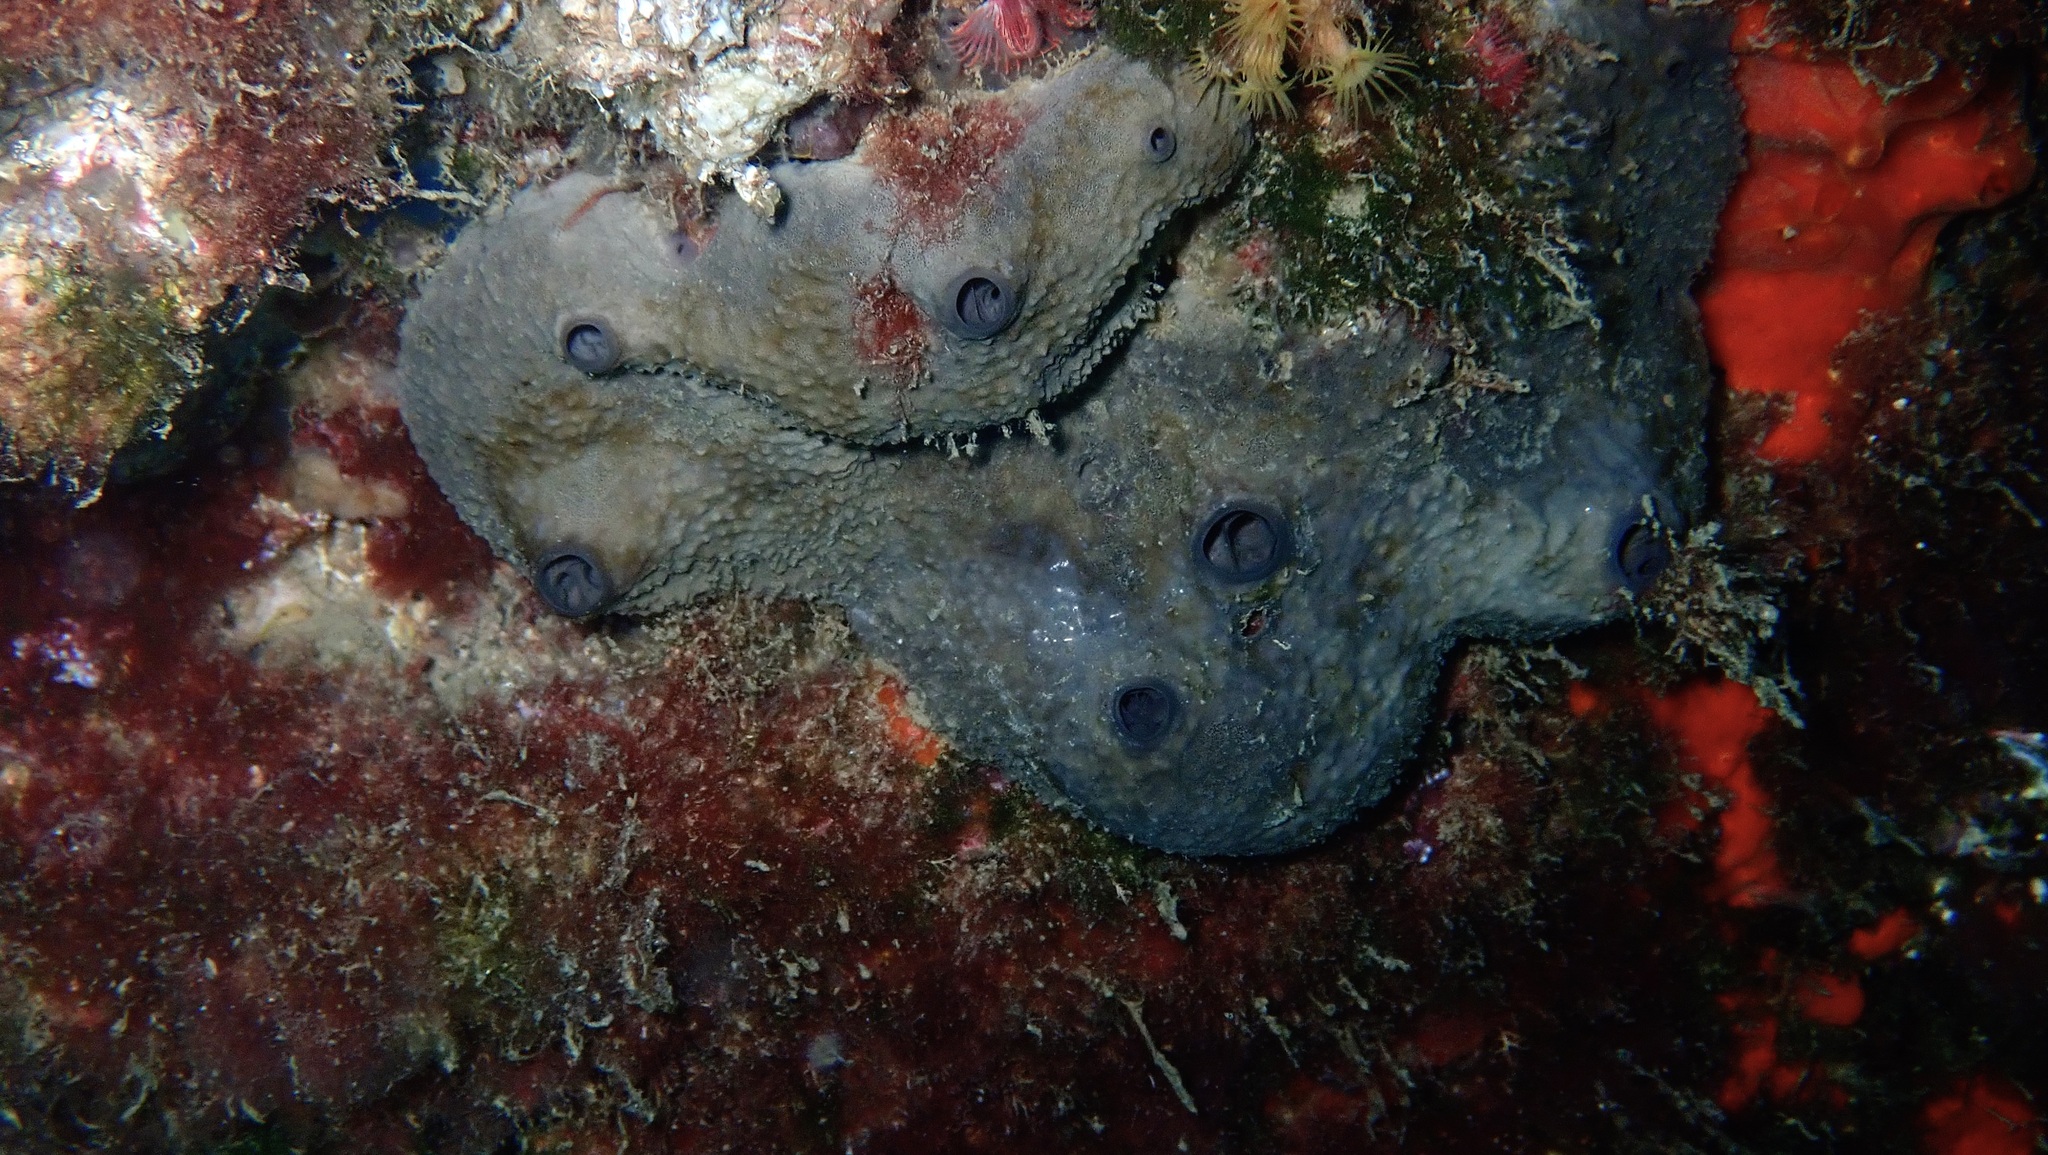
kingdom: Animalia
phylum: Porifera
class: Demospongiae
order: Dictyoceratida
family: Irciniidae
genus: Ircinia
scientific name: Ircinia oros
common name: Grey leather sponge
